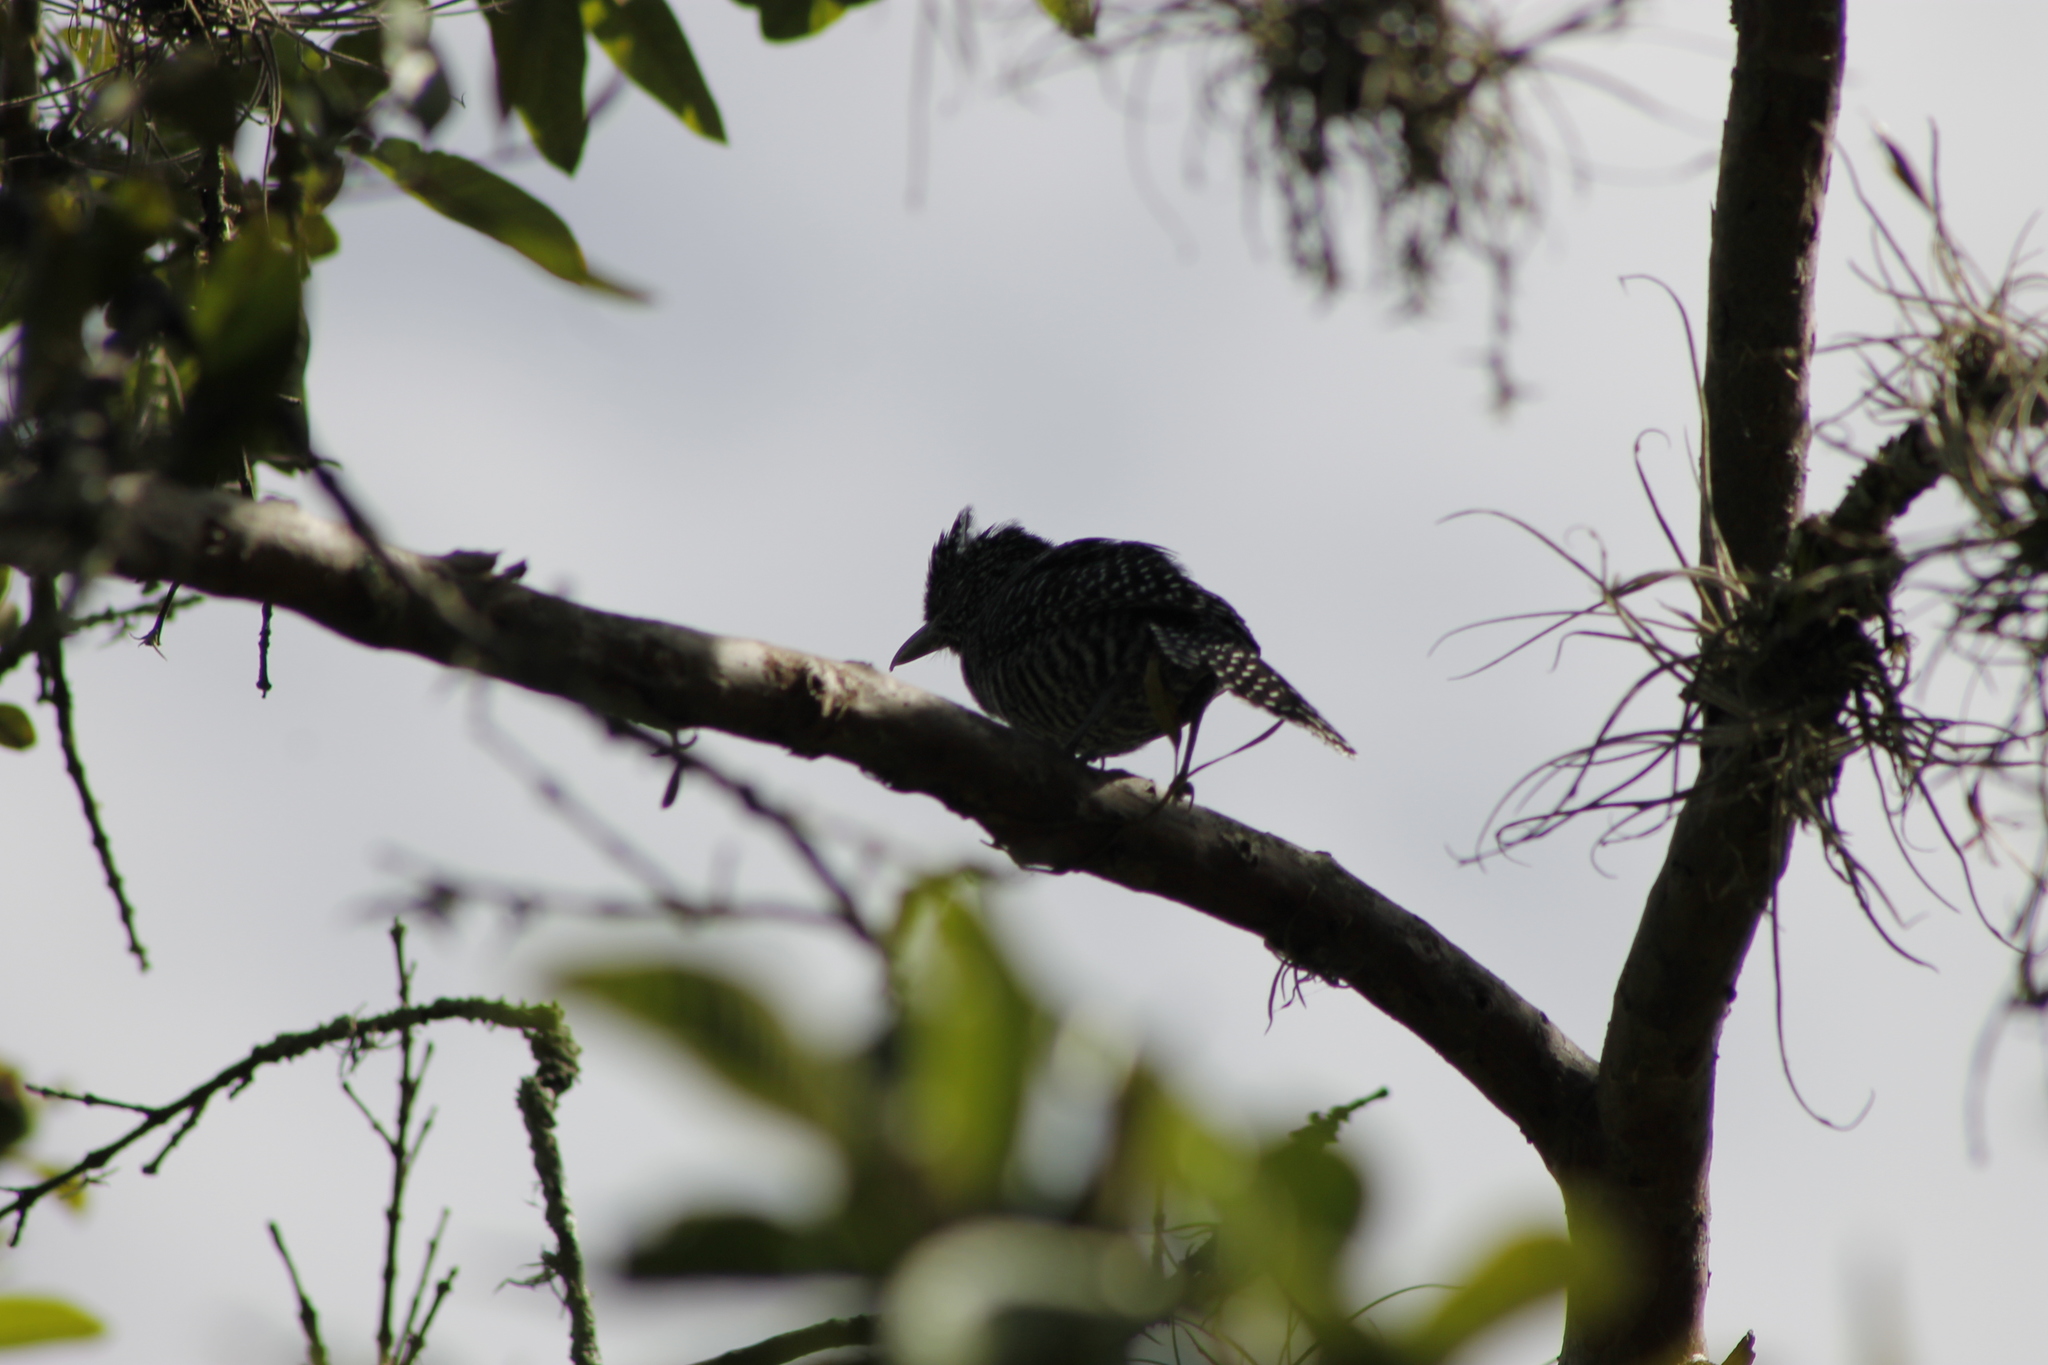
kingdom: Animalia
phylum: Chordata
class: Aves
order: Passeriformes
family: Thamnophilidae
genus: Thamnophilus
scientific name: Thamnophilus multistriatus
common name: Bar-crested antshrike
